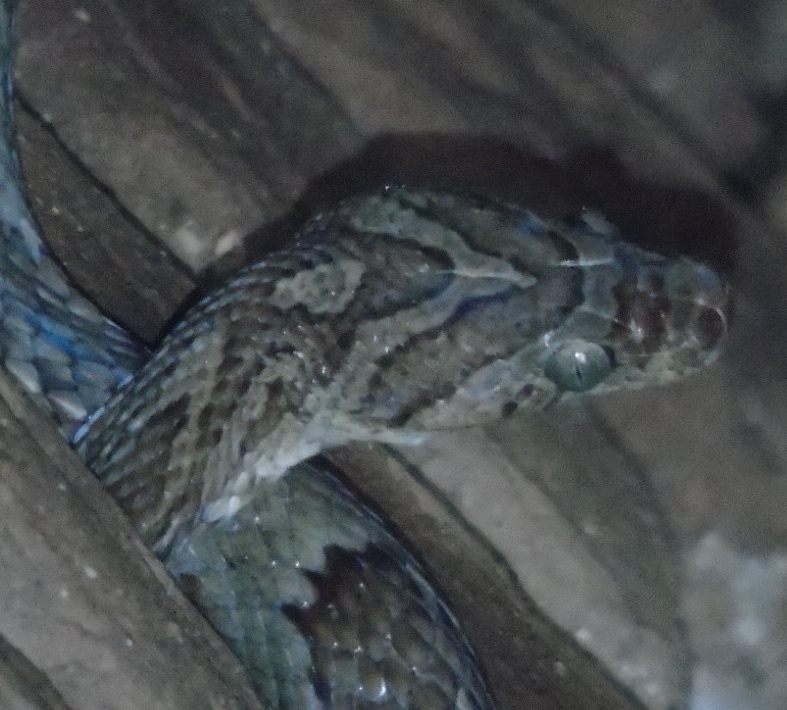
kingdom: Animalia
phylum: Chordata
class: Squamata
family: Colubridae
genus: Trimorphodon
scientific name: Trimorphodon paucimaculatus
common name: Sinaloan lyresnake
